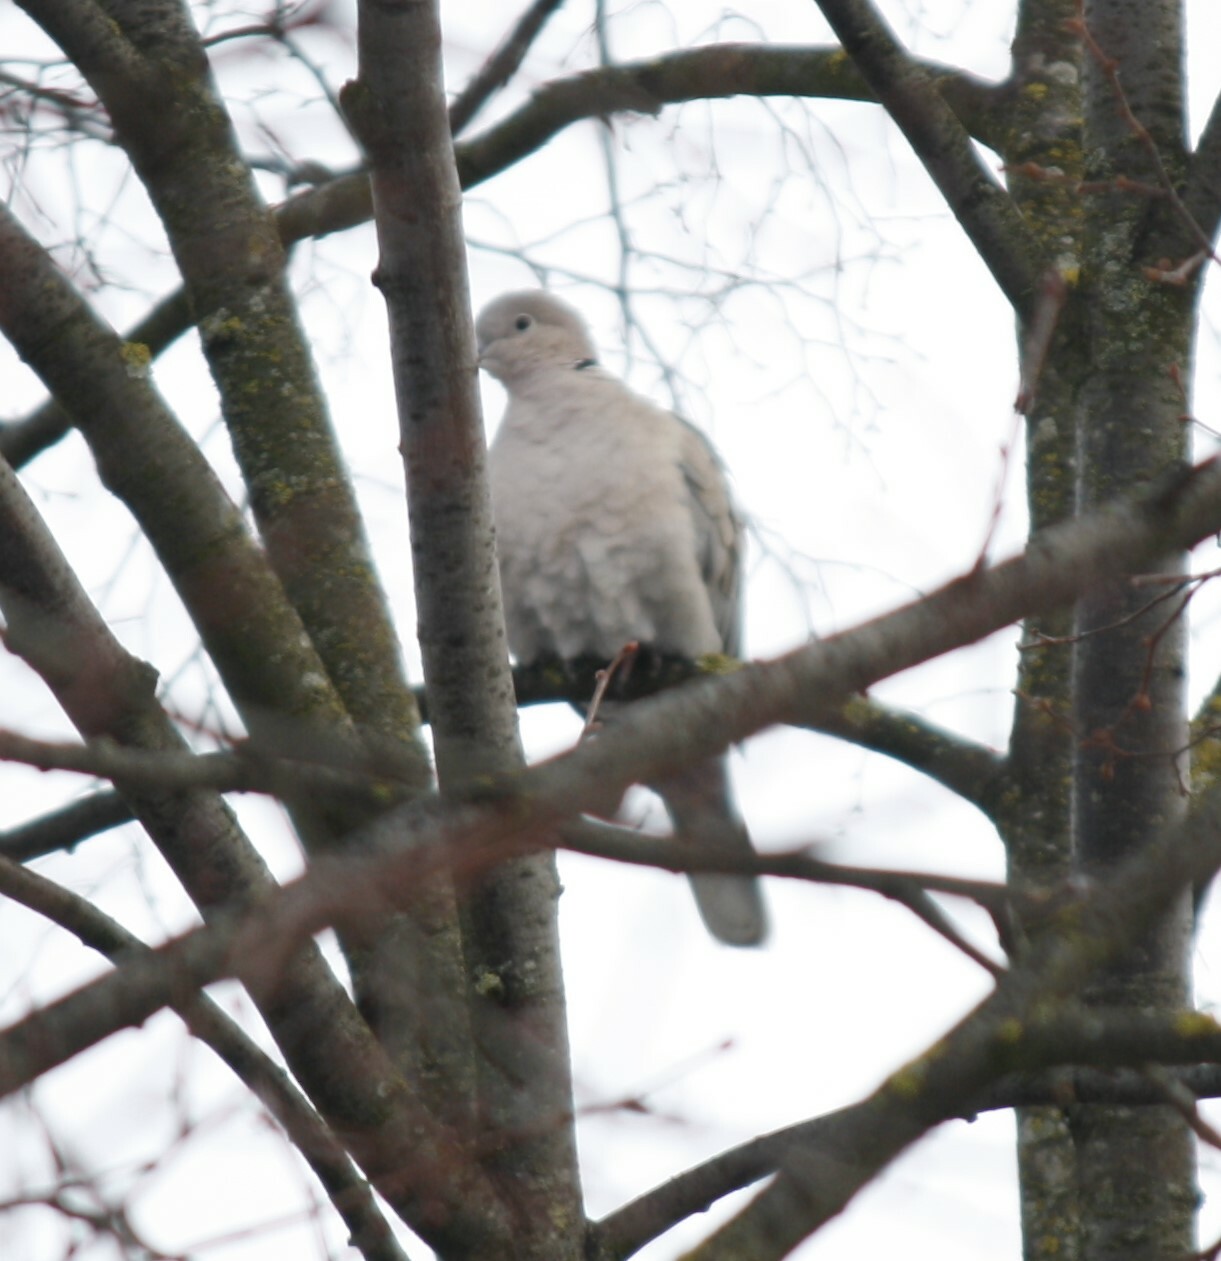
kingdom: Animalia
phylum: Chordata
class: Aves
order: Columbiformes
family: Columbidae
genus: Streptopelia
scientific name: Streptopelia decaocto
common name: Eurasian collared dove
